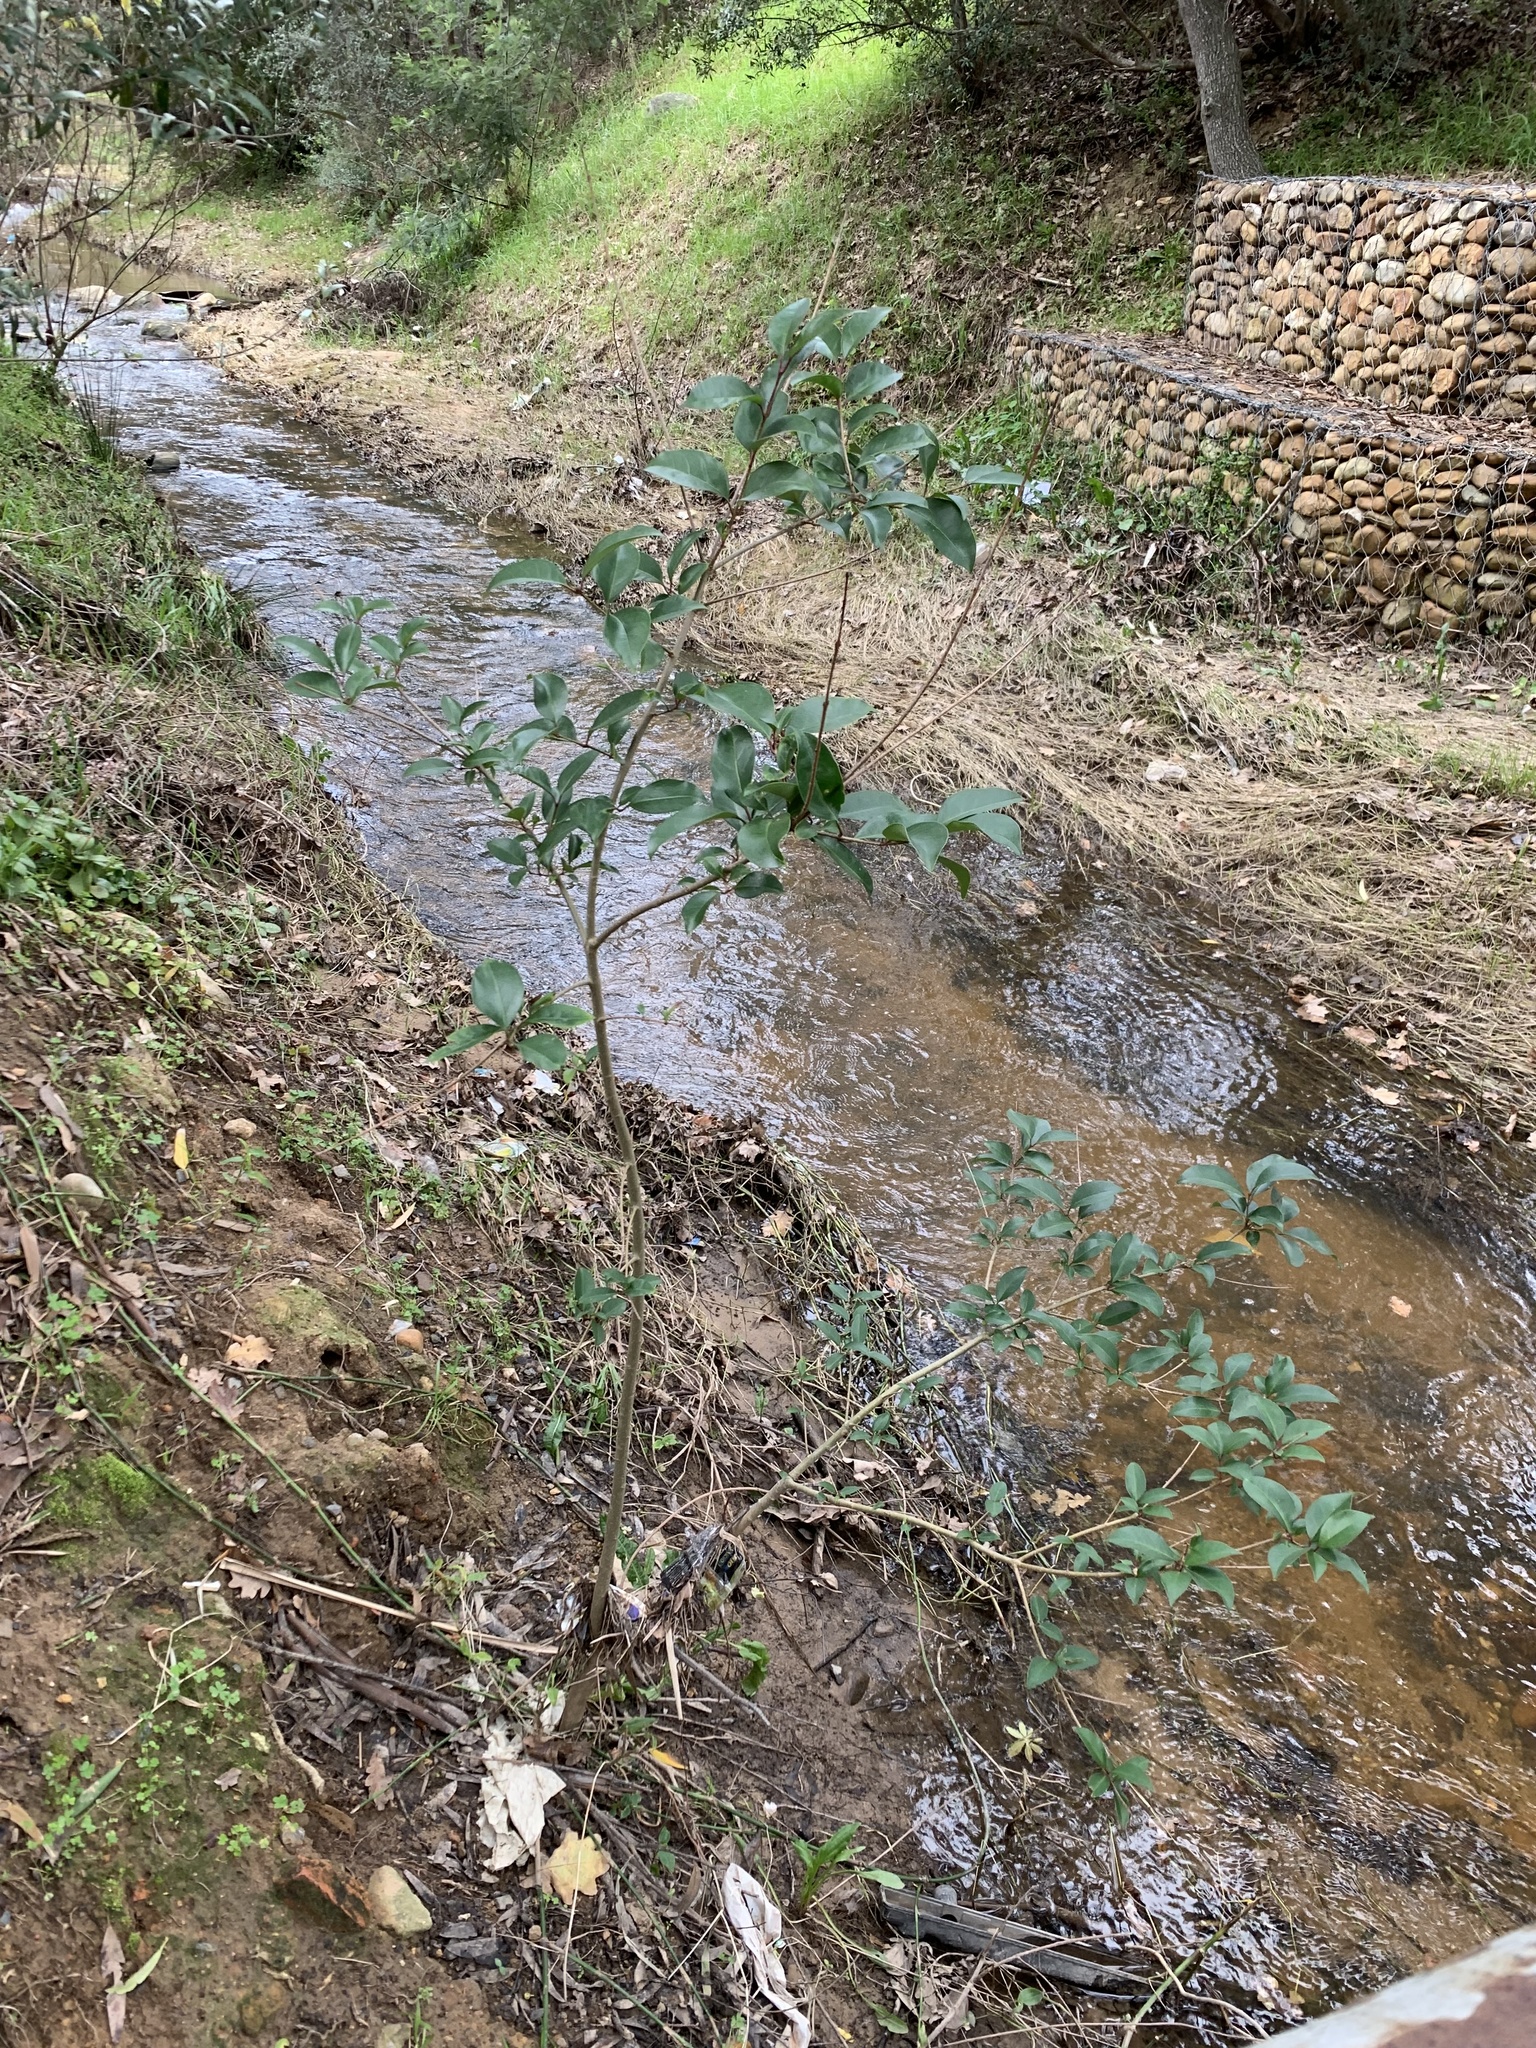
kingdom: Plantae
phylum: Tracheophyta
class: Magnoliopsida
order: Lamiales
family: Oleaceae
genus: Ligustrum
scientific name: Ligustrum lucidum
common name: Glossy privet
